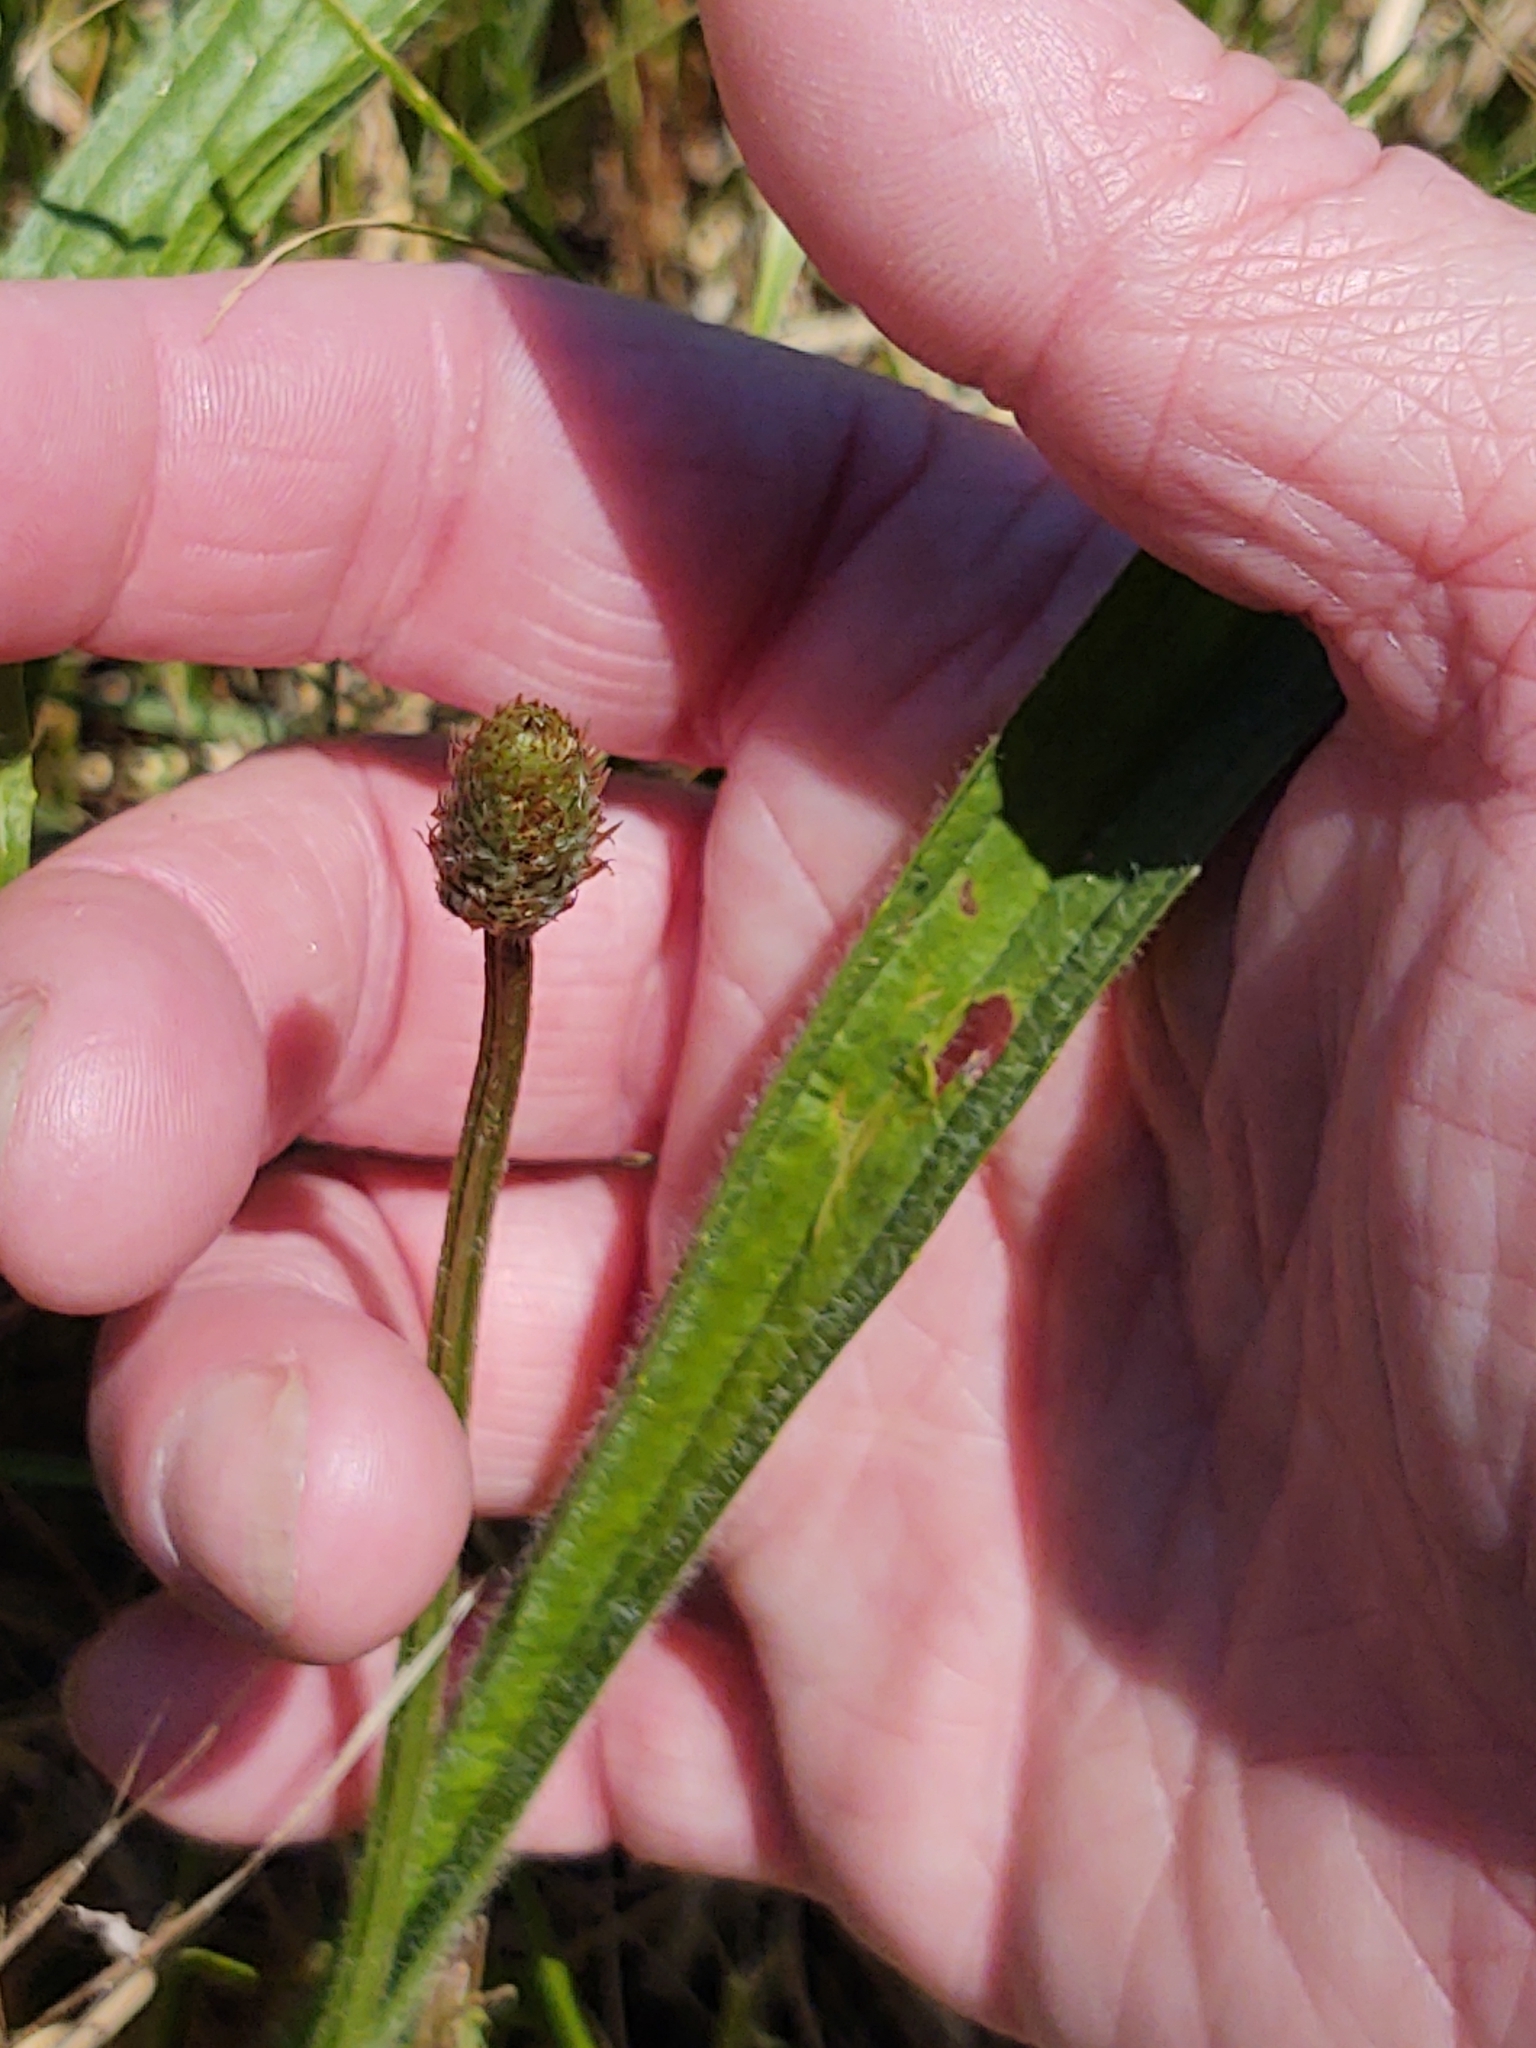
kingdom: Plantae
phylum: Tracheophyta
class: Magnoliopsida
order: Lamiales
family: Plantaginaceae
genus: Plantago
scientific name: Plantago lanceolata
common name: Ribwort plantain
